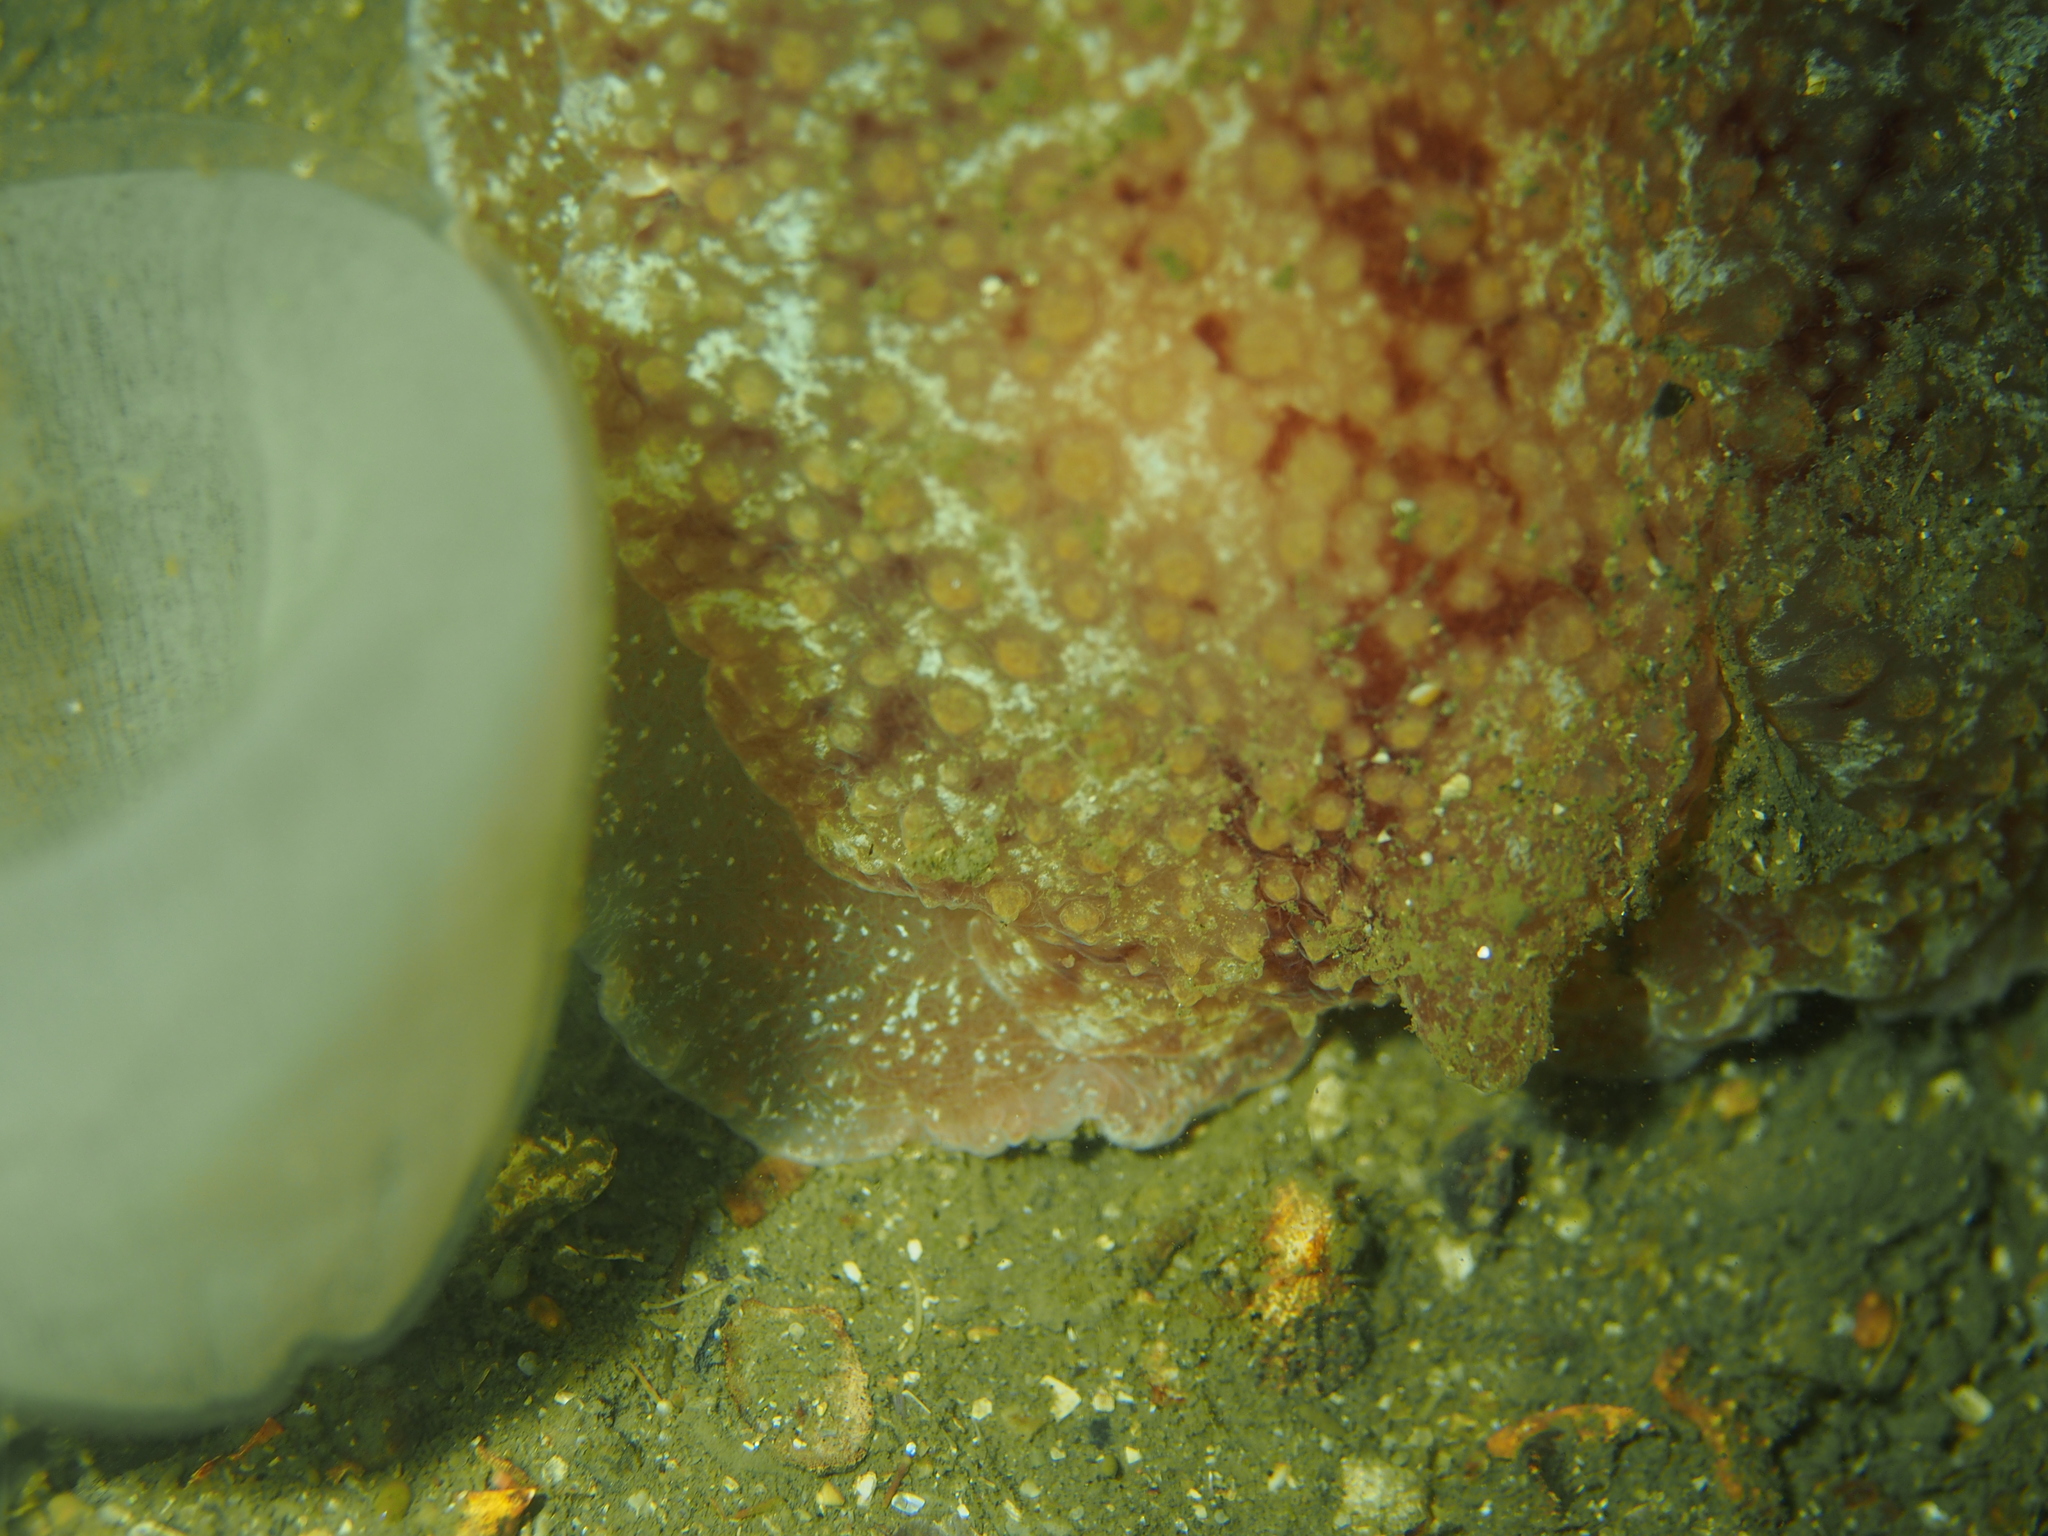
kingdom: Animalia
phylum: Mollusca
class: Gastropoda
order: Pleurobranchida
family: Pleurobranchidae
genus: Pleurobranchus
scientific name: Pleurobranchus membranaceus
